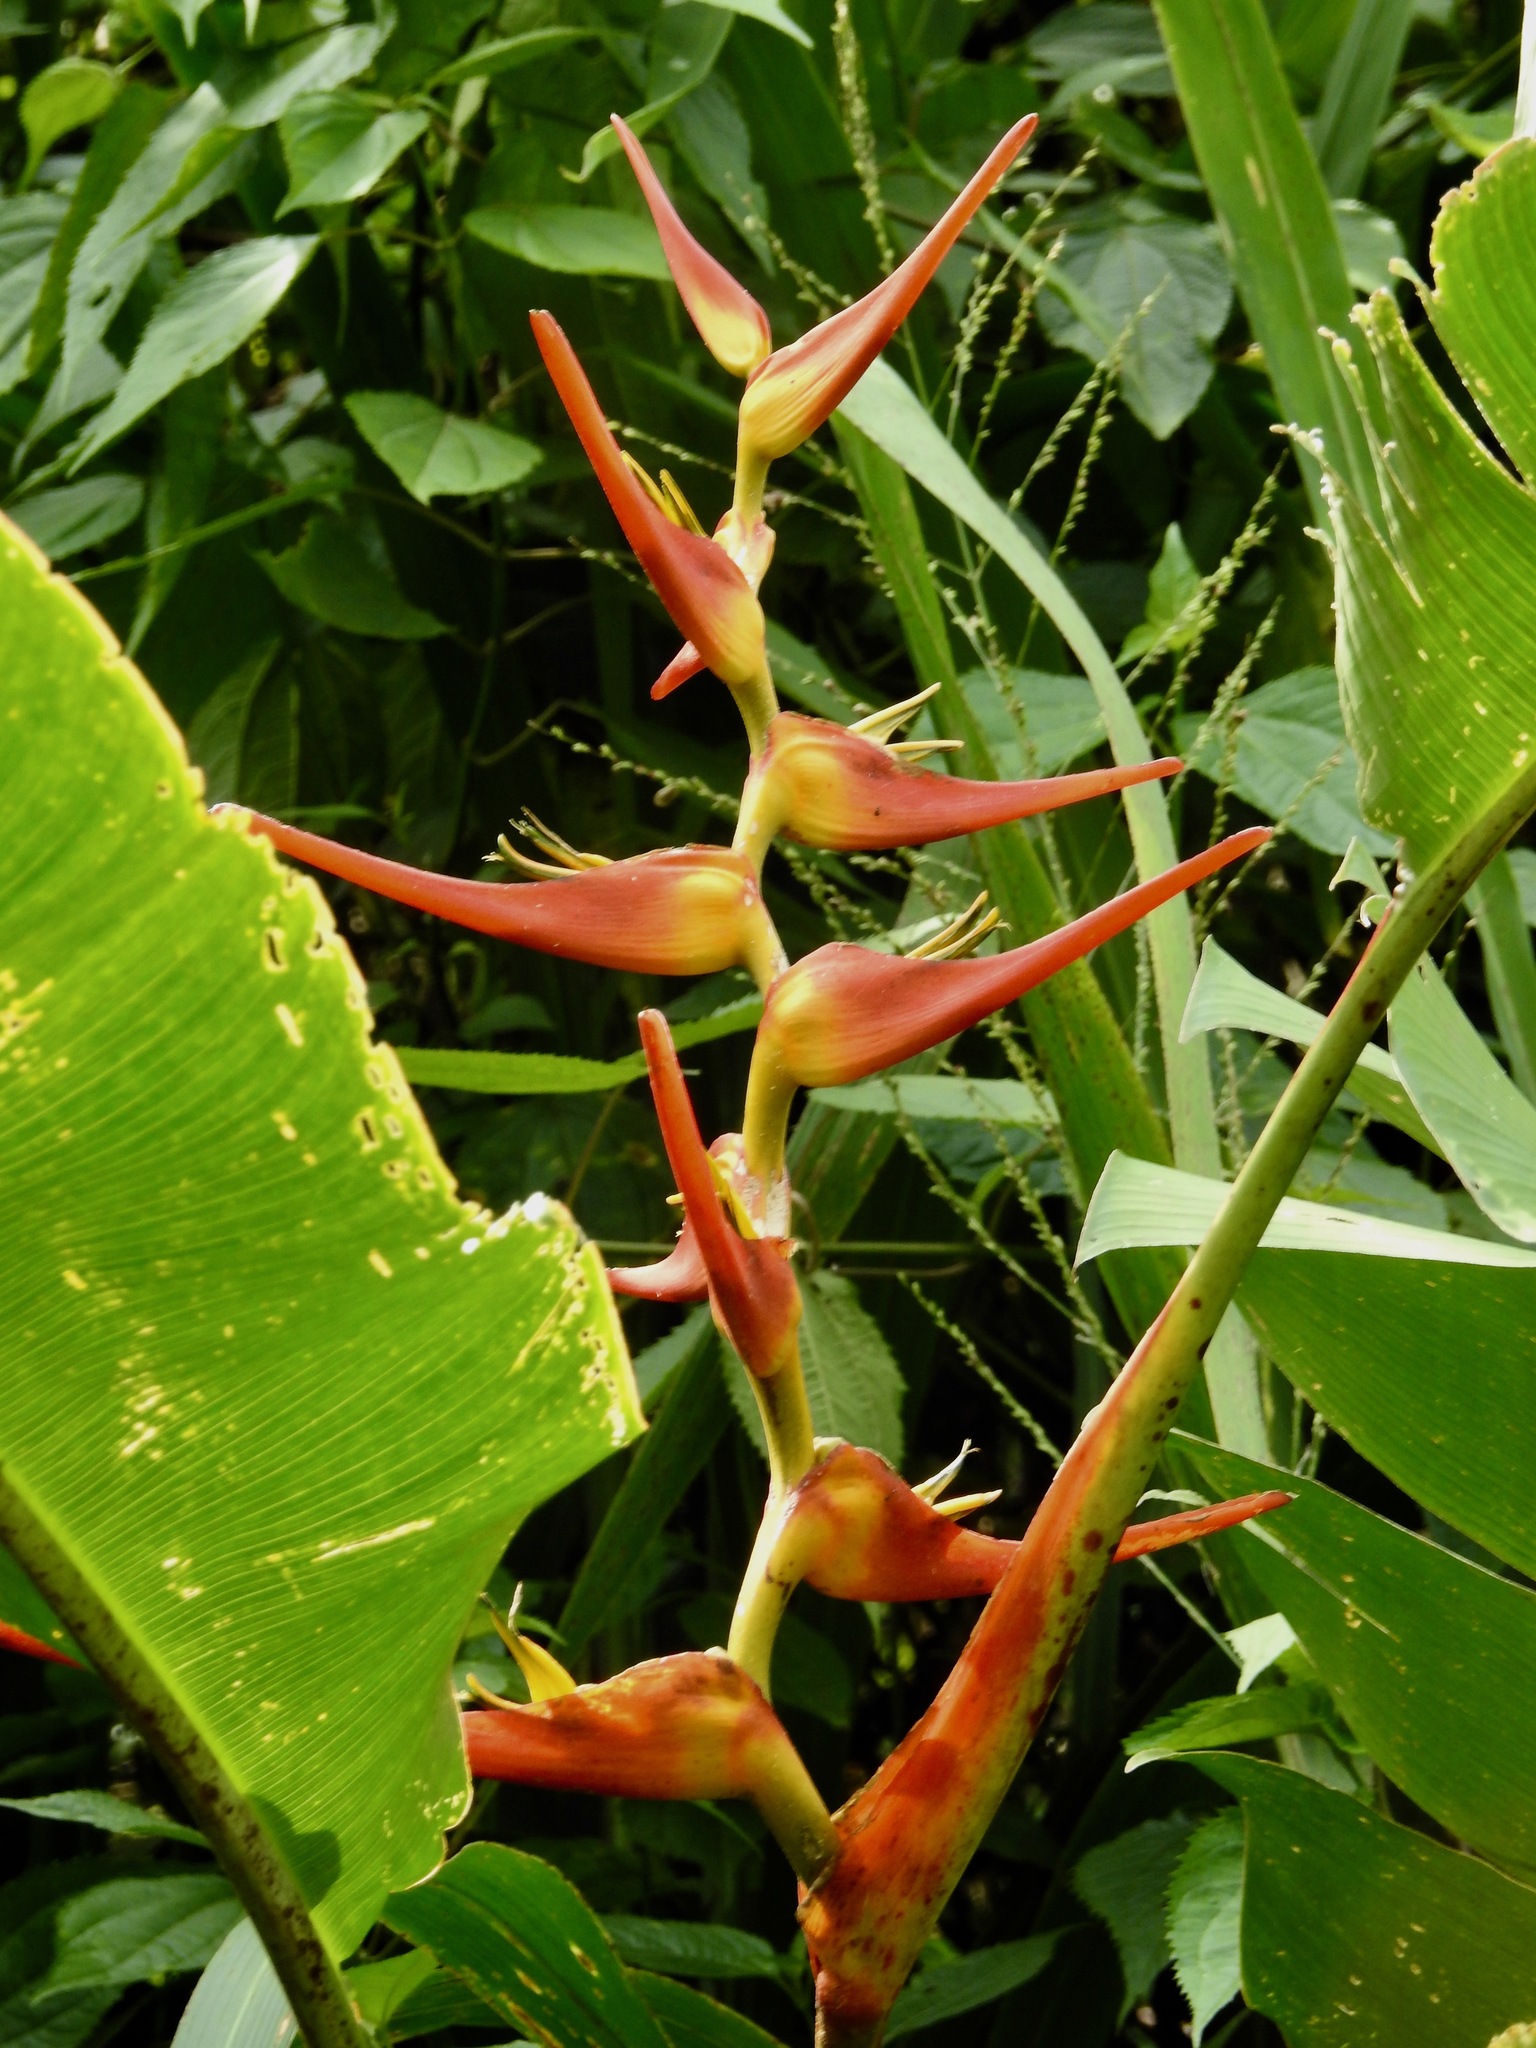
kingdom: Plantae
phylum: Tracheophyta
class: Liliopsida
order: Zingiberales
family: Heliconiaceae
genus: Heliconia
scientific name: Heliconia latispatha
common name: Expanded lobsterclaw
